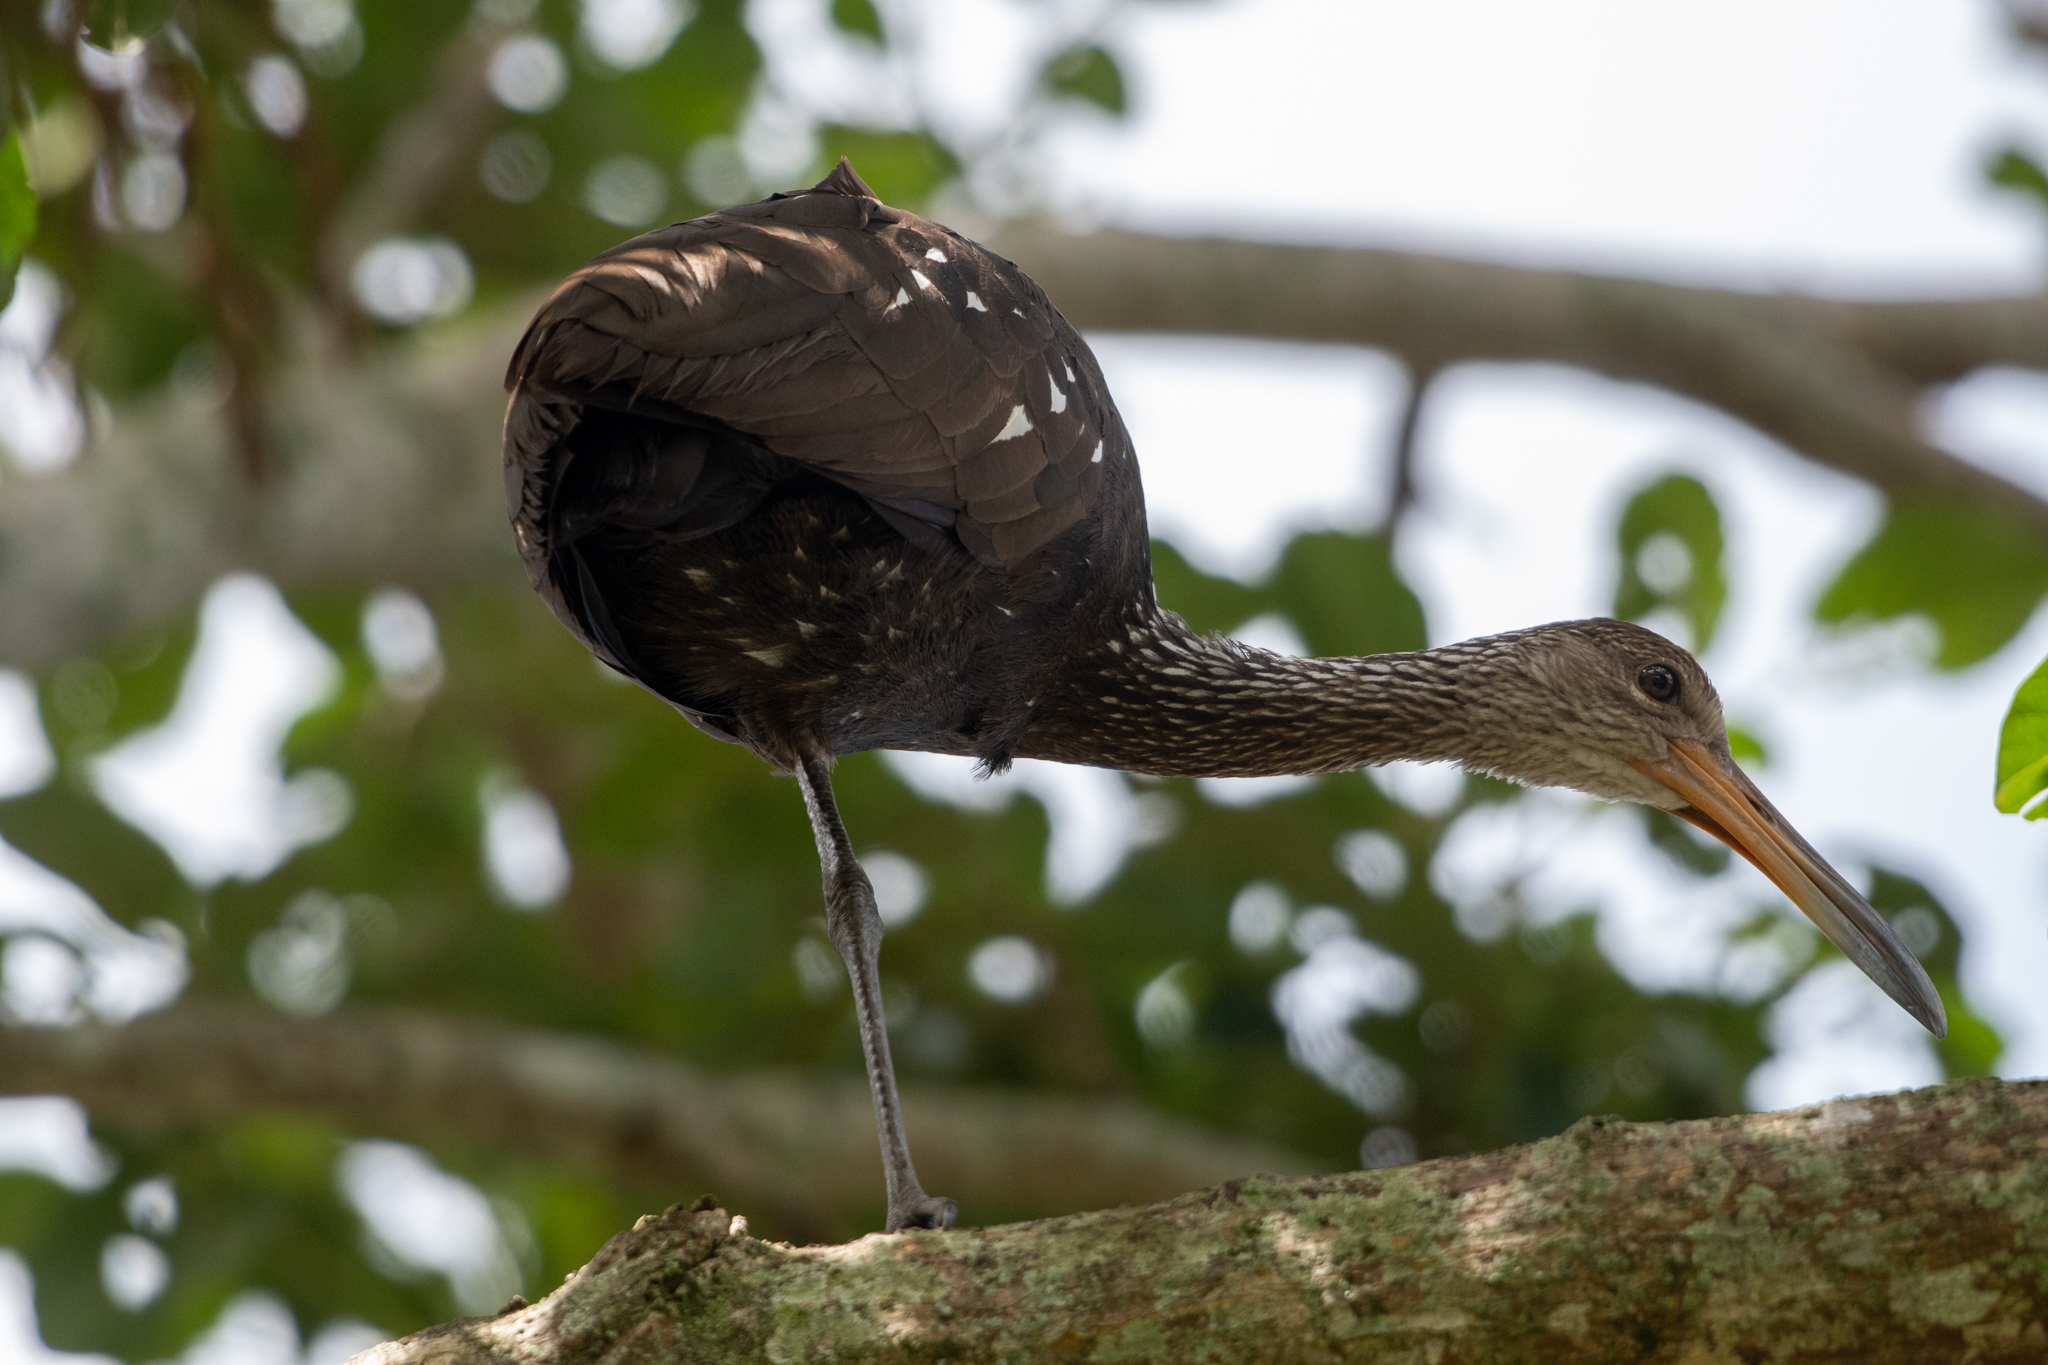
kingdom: Animalia
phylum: Chordata
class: Aves
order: Gruiformes
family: Aramidae
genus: Aramus
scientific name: Aramus guarauna
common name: Limpkin
